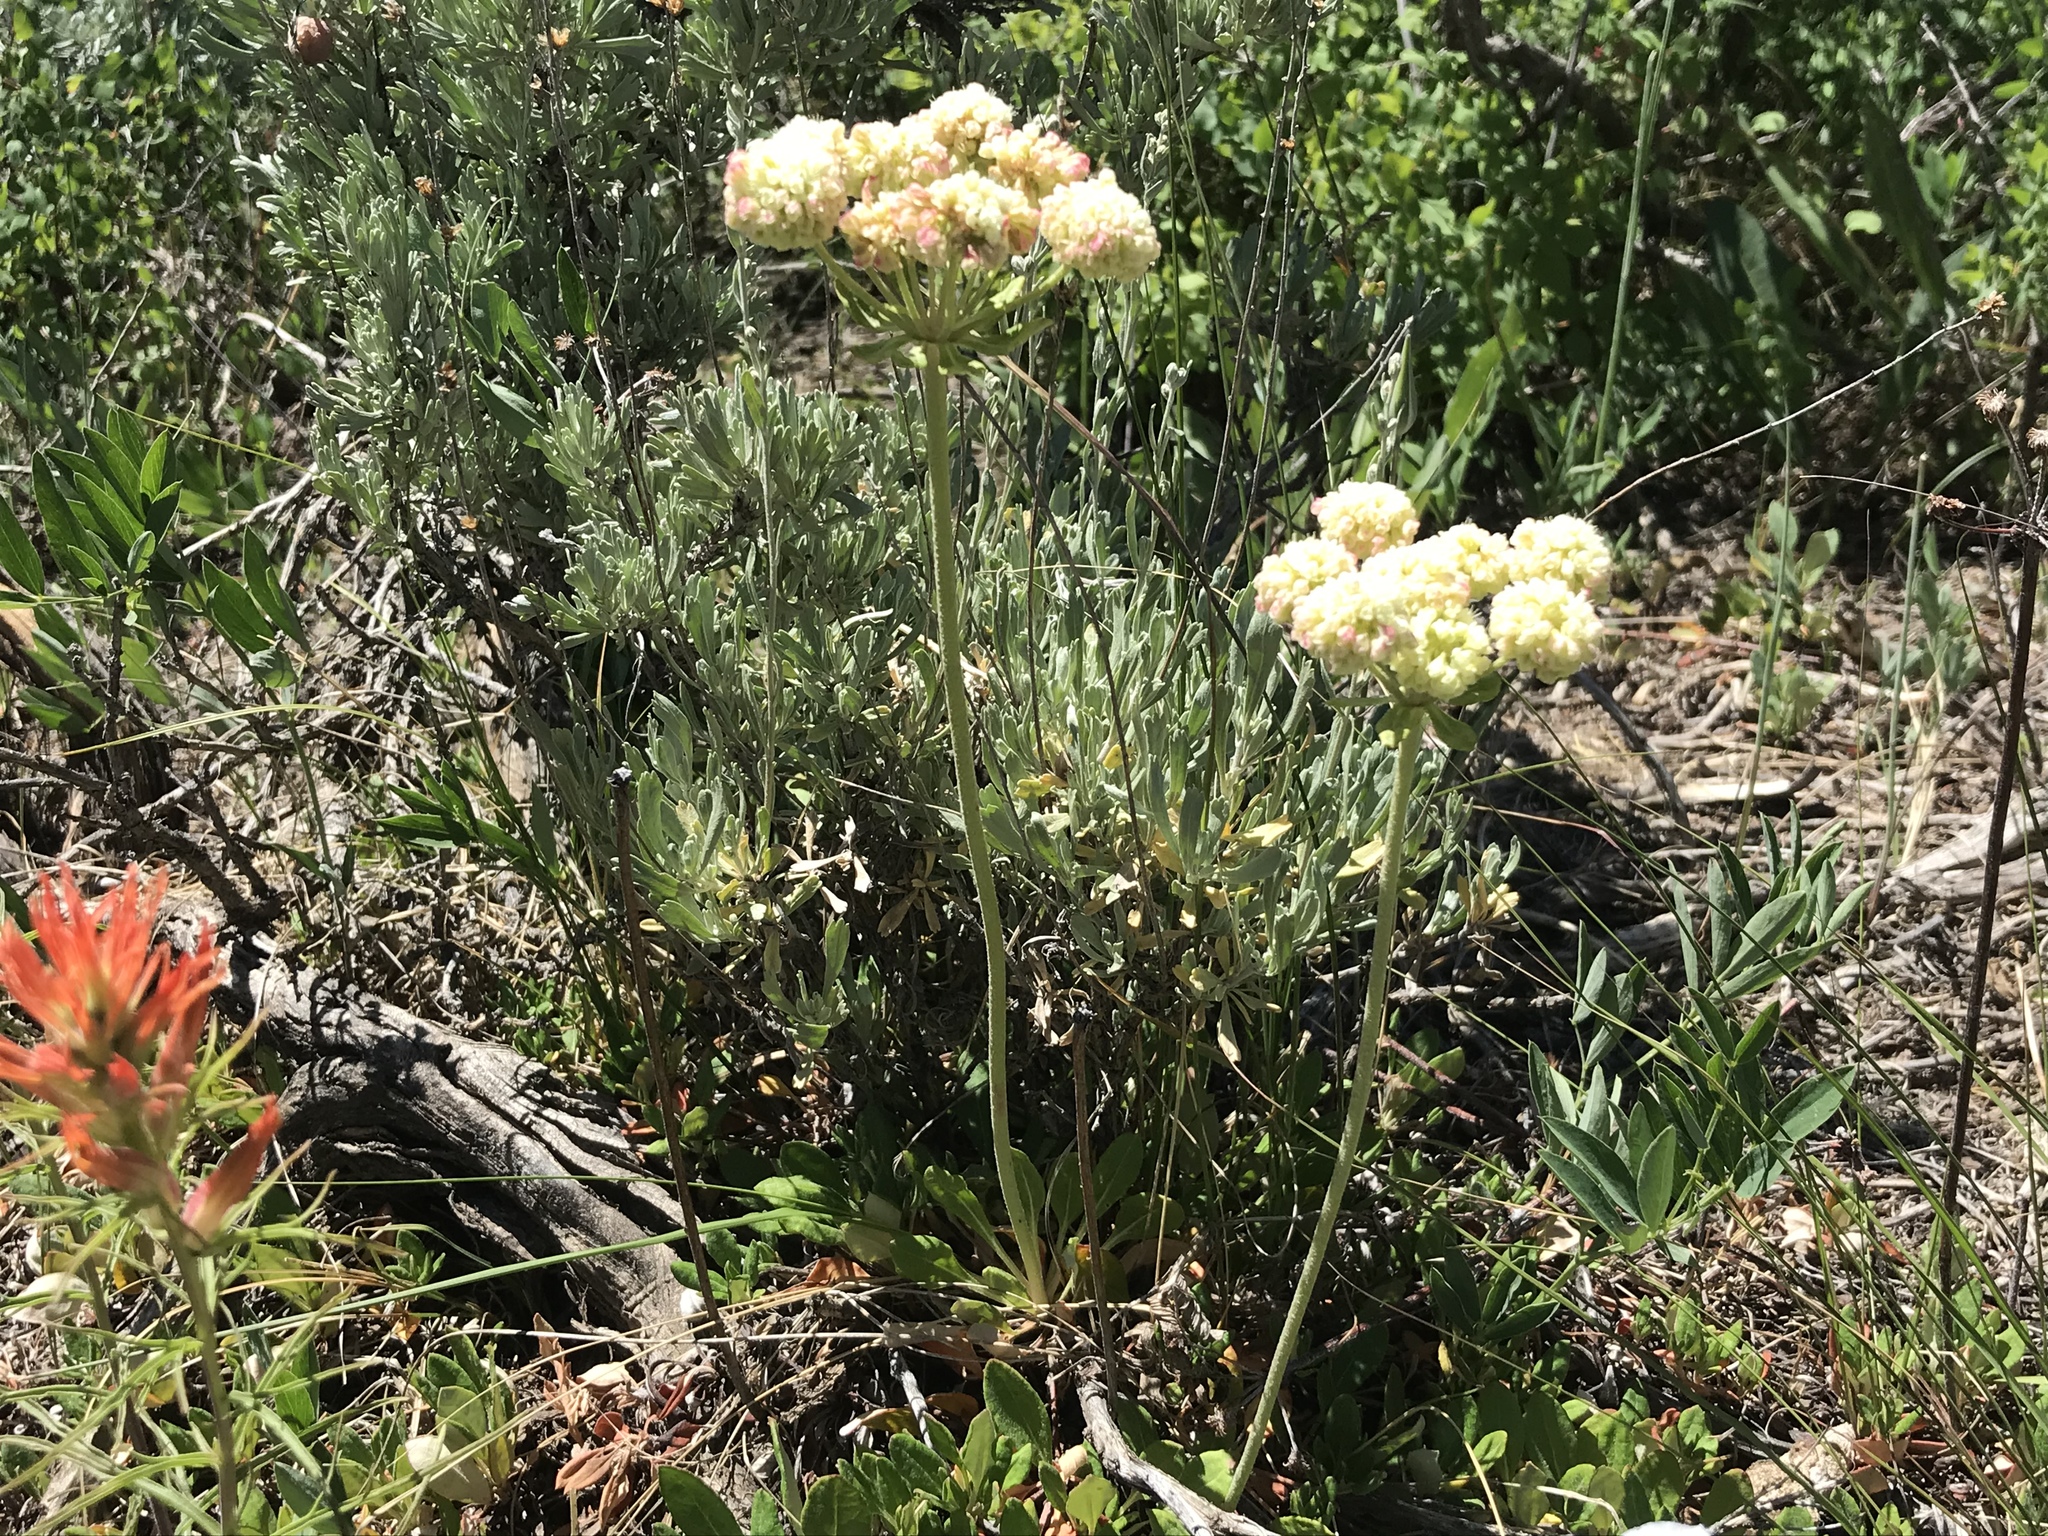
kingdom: Plantae
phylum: Tracheophyta
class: Magnoliopsida
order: Caryophyllales
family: Polygonaceae
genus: Eriogonum
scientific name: Eriogonum umbellatum
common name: Sulfur-buckwheat
